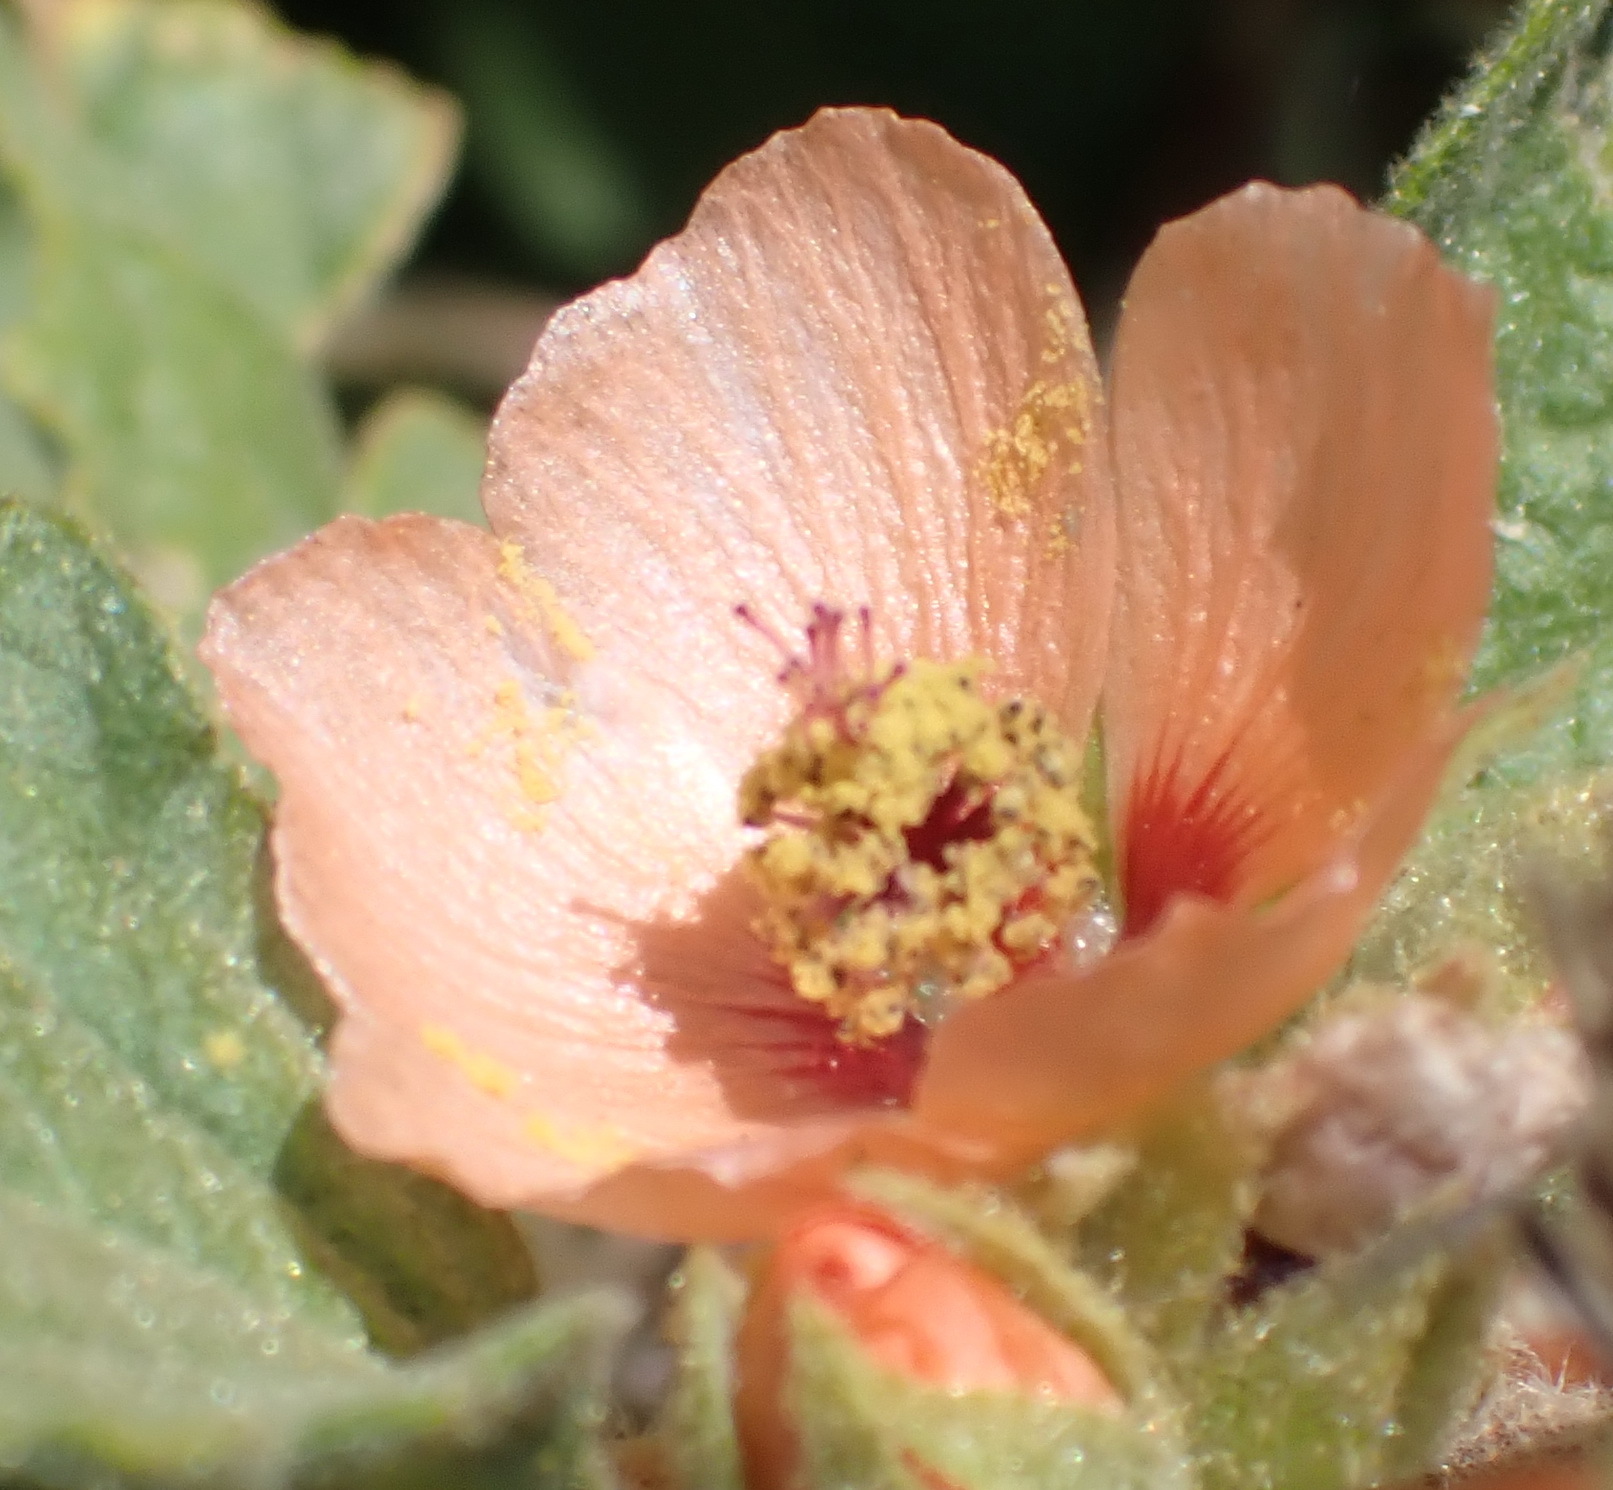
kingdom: Plantae
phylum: Tracheophyta
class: Magnoliopsida
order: Malvales
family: Malvaceae
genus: Sphaeralcea
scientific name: Sphaeralcea bonariensis
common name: Latin globemallow
